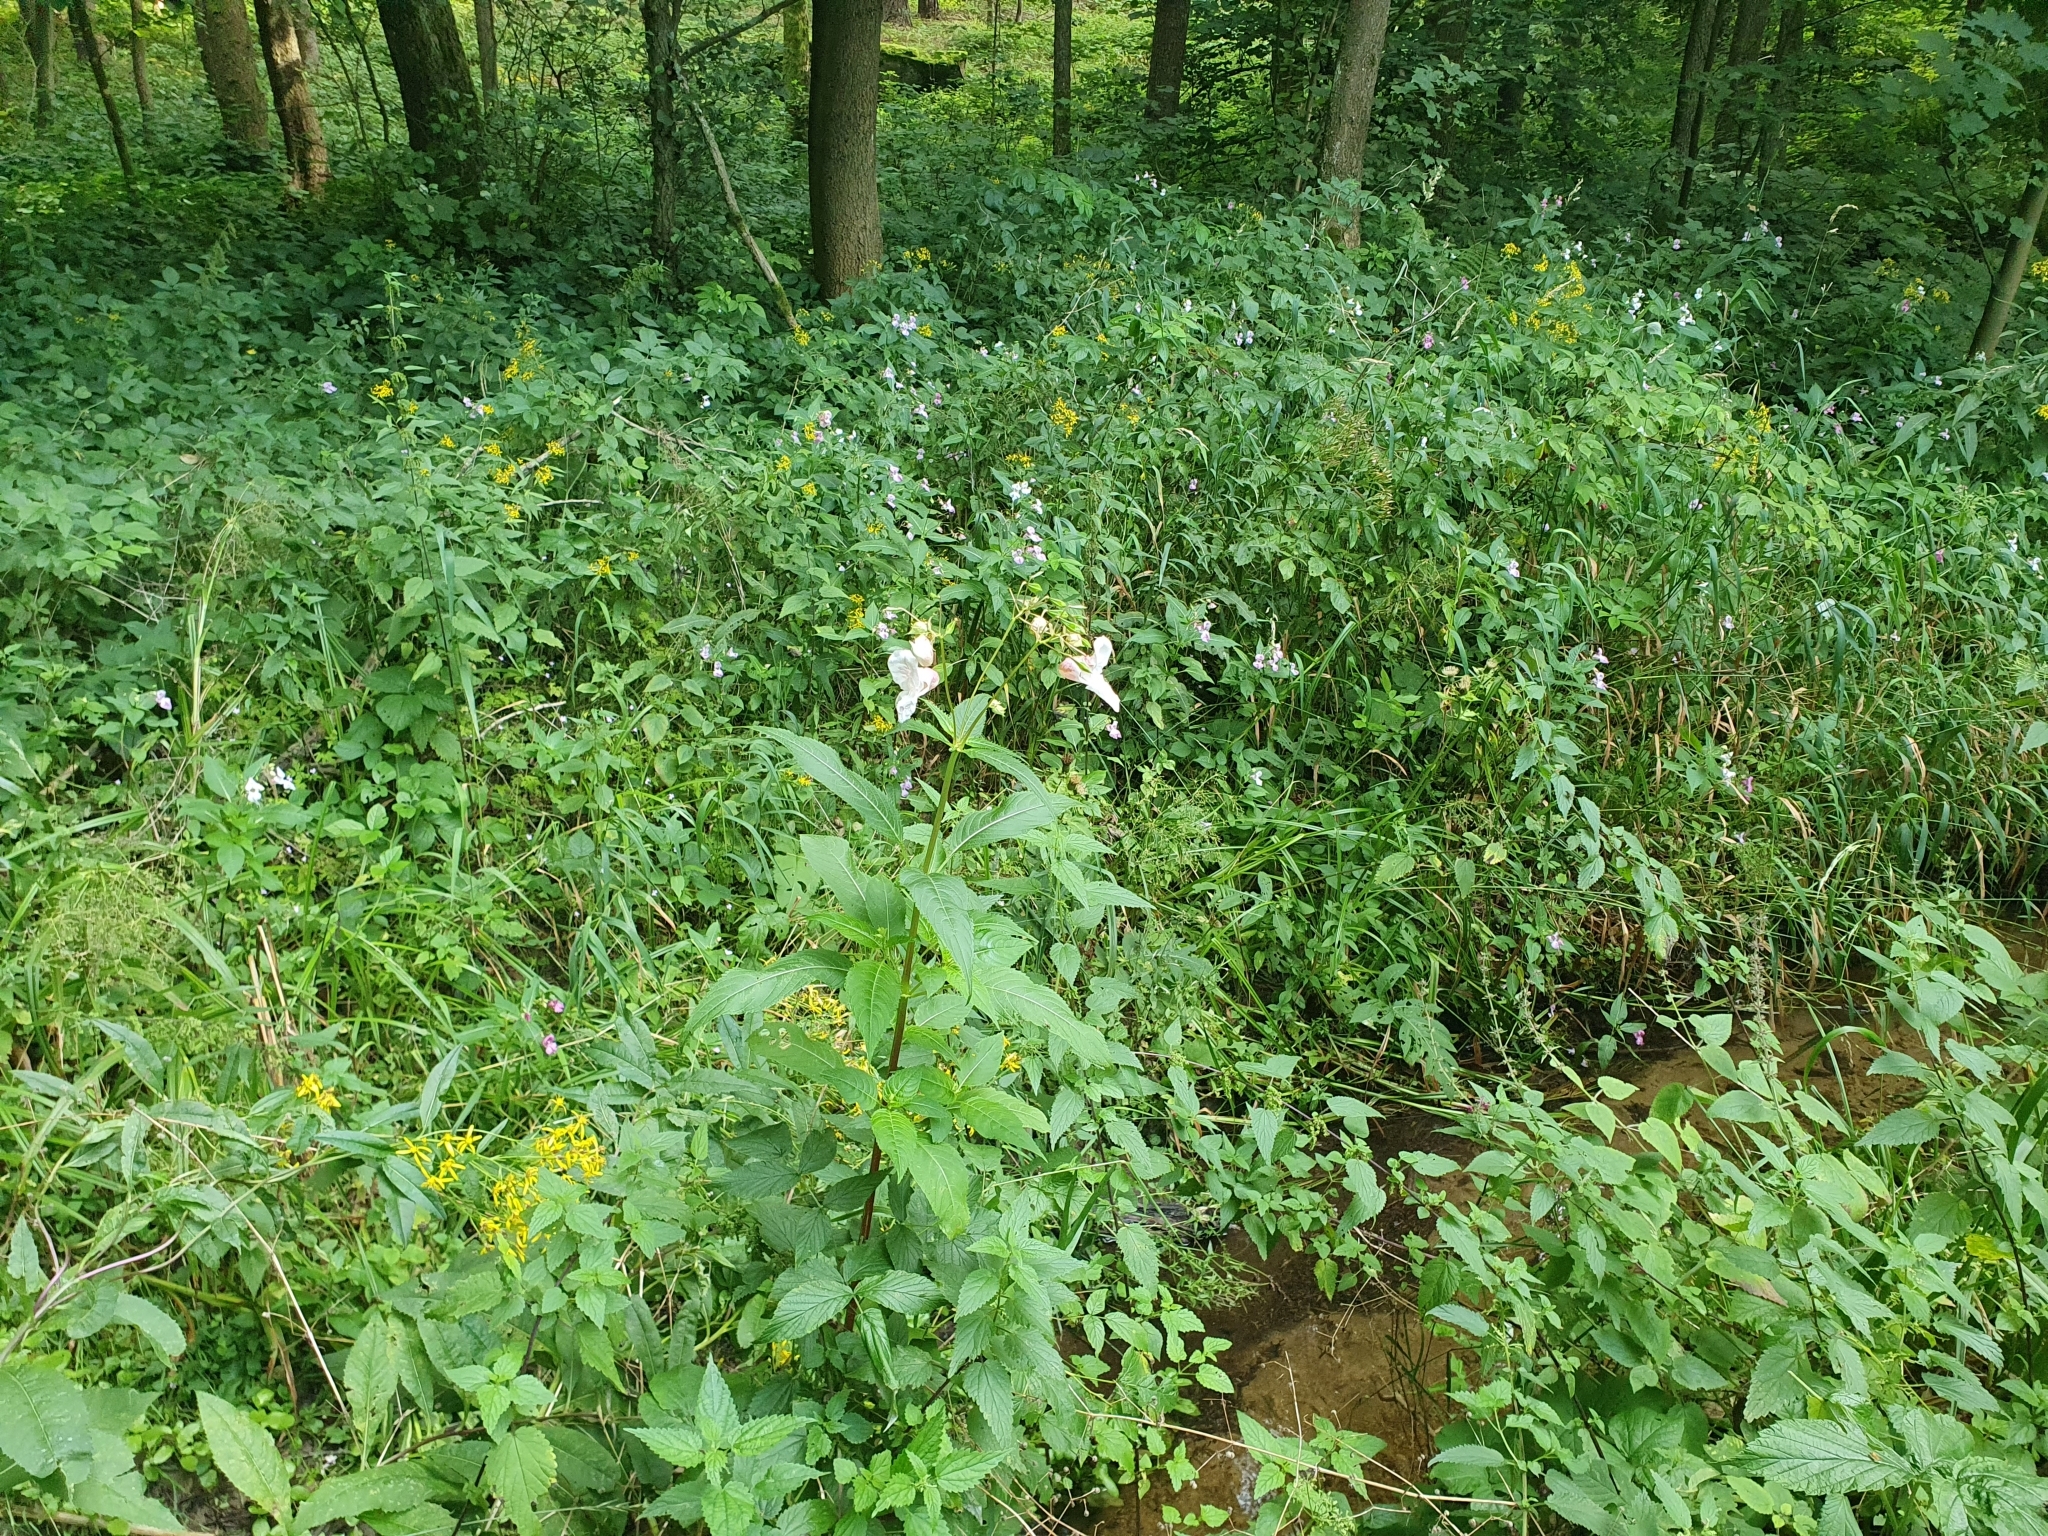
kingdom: Plantae
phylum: Tracheophyta
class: Magnoliopsida
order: Ericales
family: Balsaminaceae
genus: Impatiens
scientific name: Impatiens glandulifera
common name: Himalayan balsam
